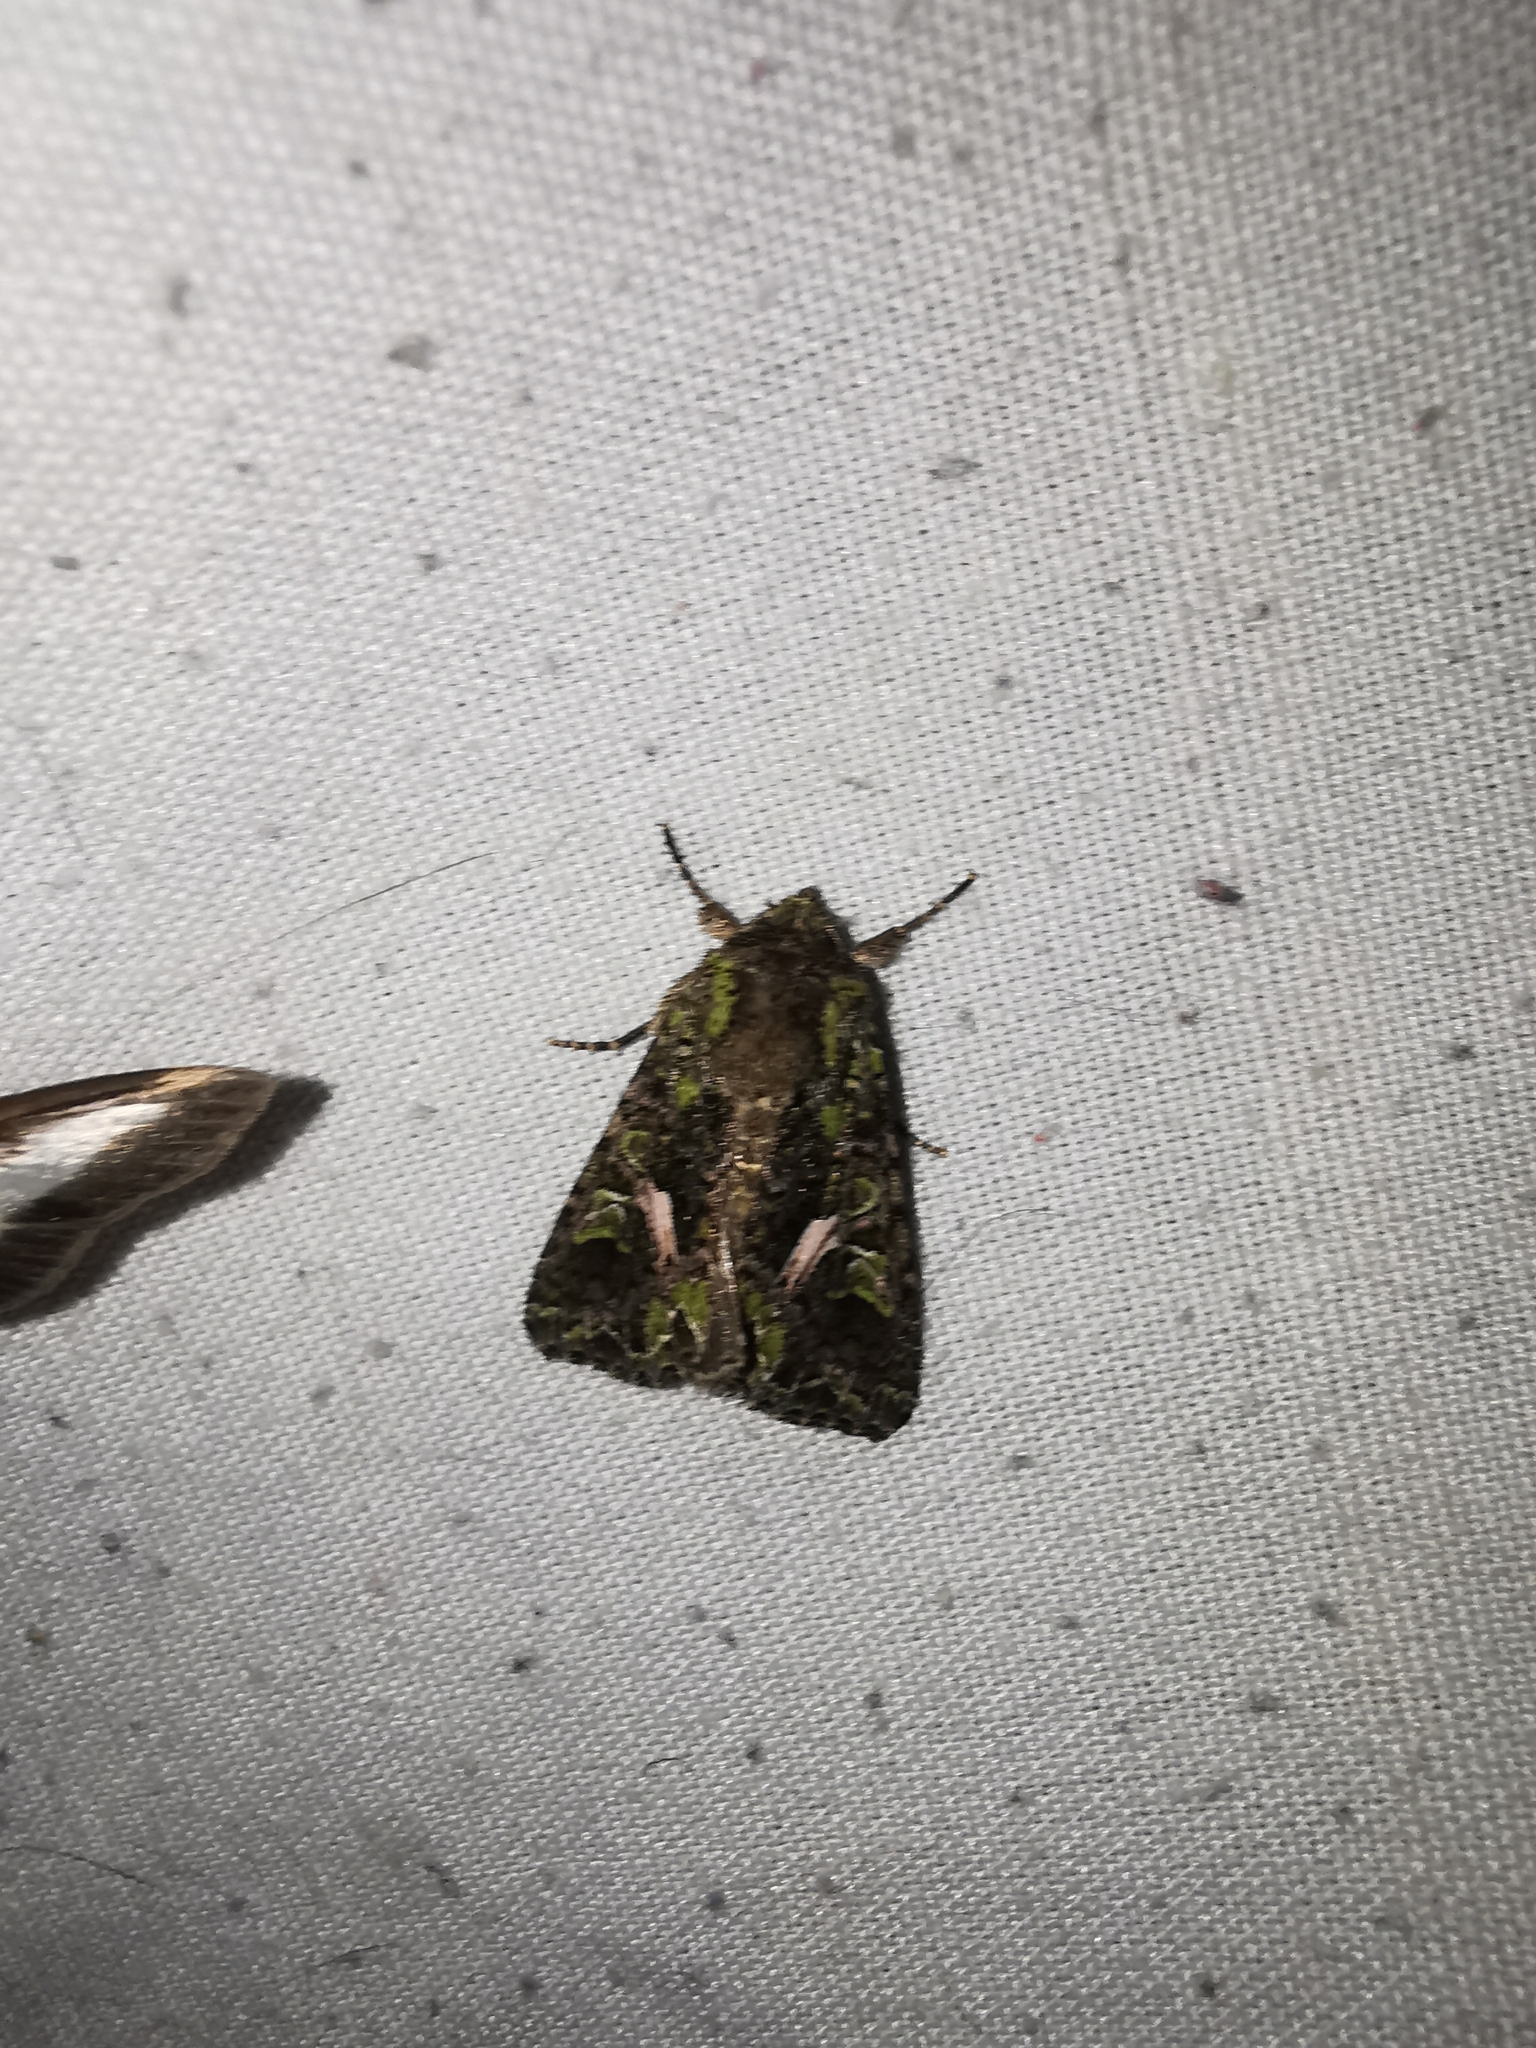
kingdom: Animalia
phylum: Arthropoda
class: Insecta
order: Lepidoptera
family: Noctuidae
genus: Trachea
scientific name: Trachea atriplicis
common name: Orache moth
